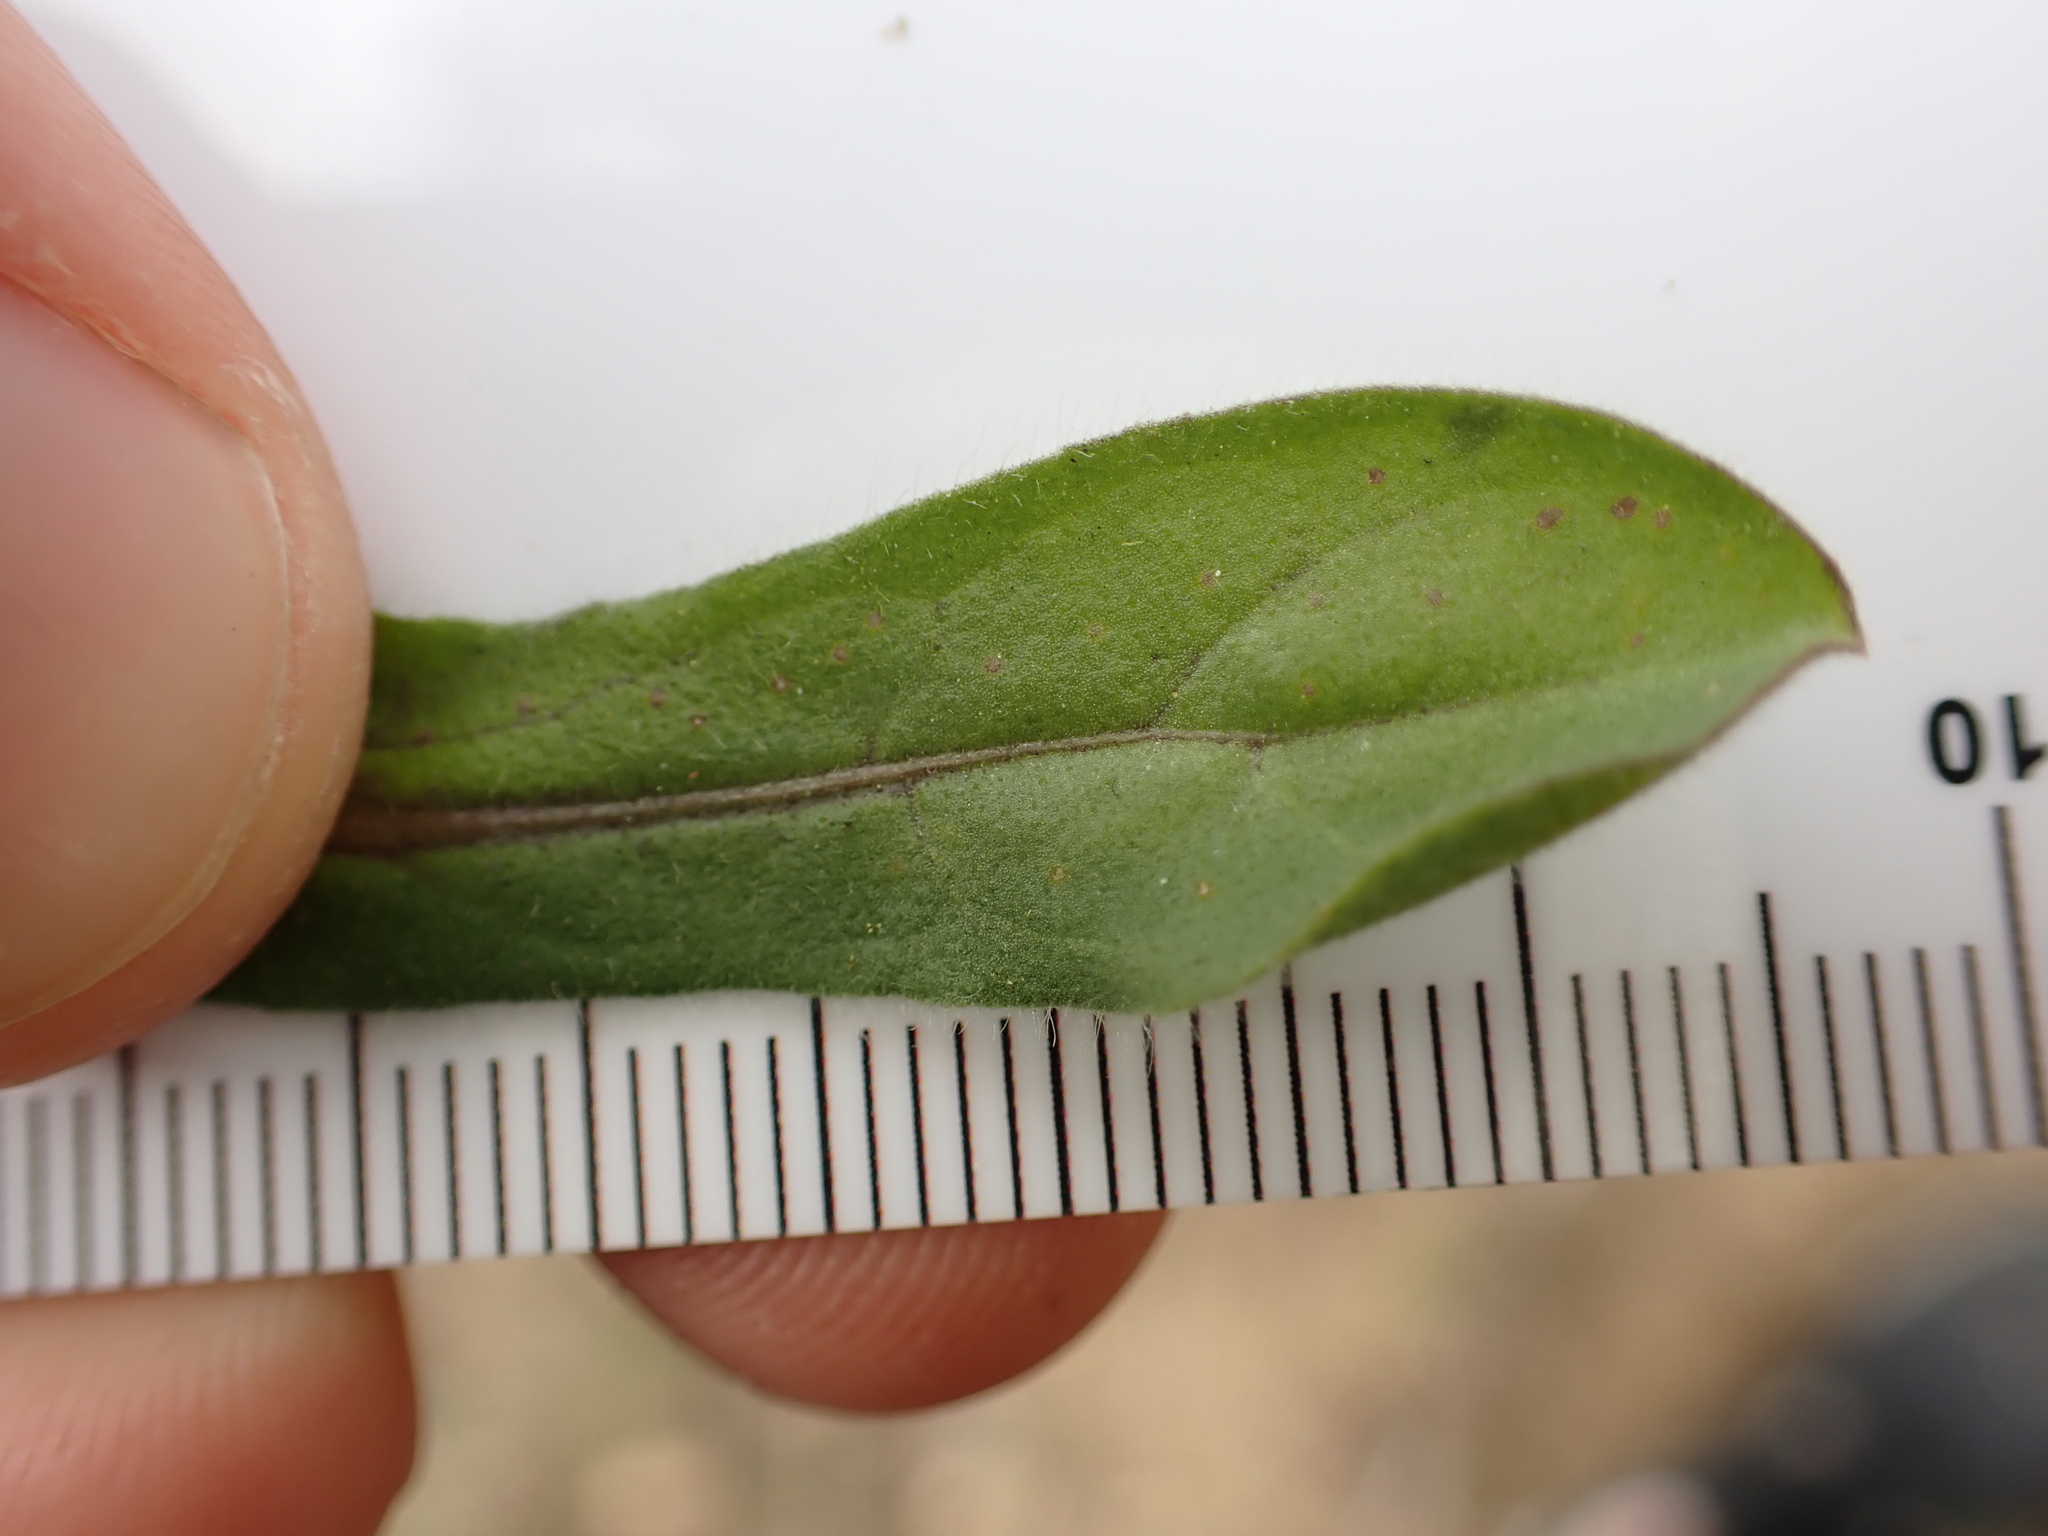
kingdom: Plantae
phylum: Tracheophyta
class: Magnoliopsida
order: Asterales
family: Asteraceae
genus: Pallenis
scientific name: Pallenis spinosa
